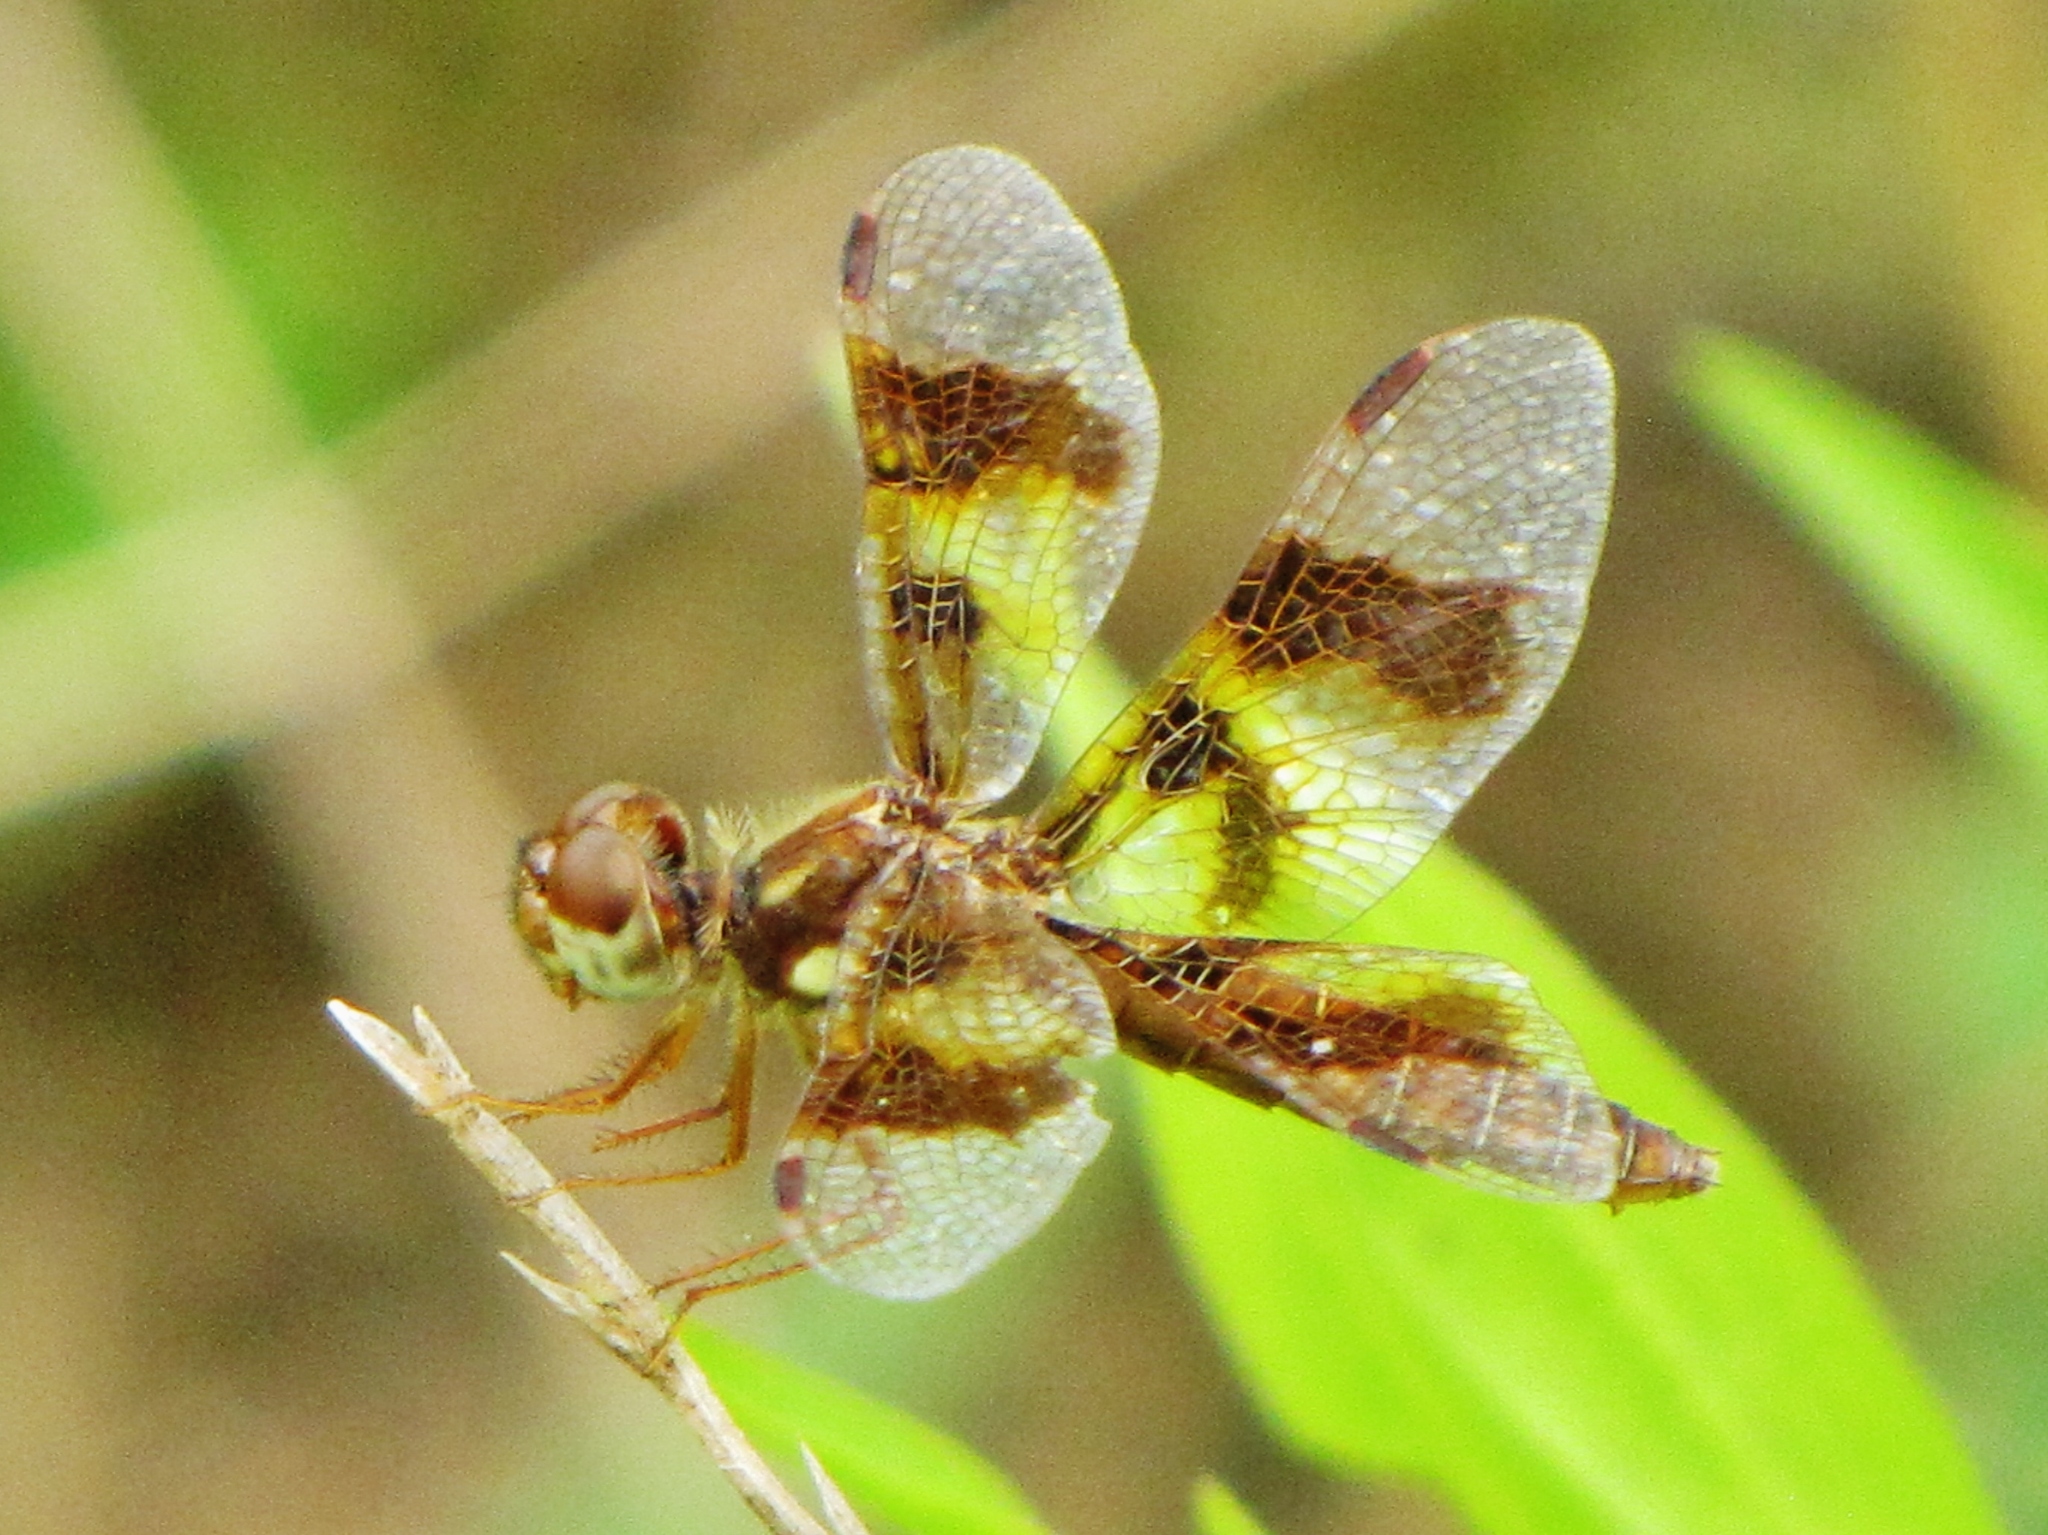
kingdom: Animalia
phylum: Arthropoda
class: Insecta
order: Odonata
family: Libellulidae
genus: Perithemis
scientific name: Perithemis tenera
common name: Eastern amberwing
